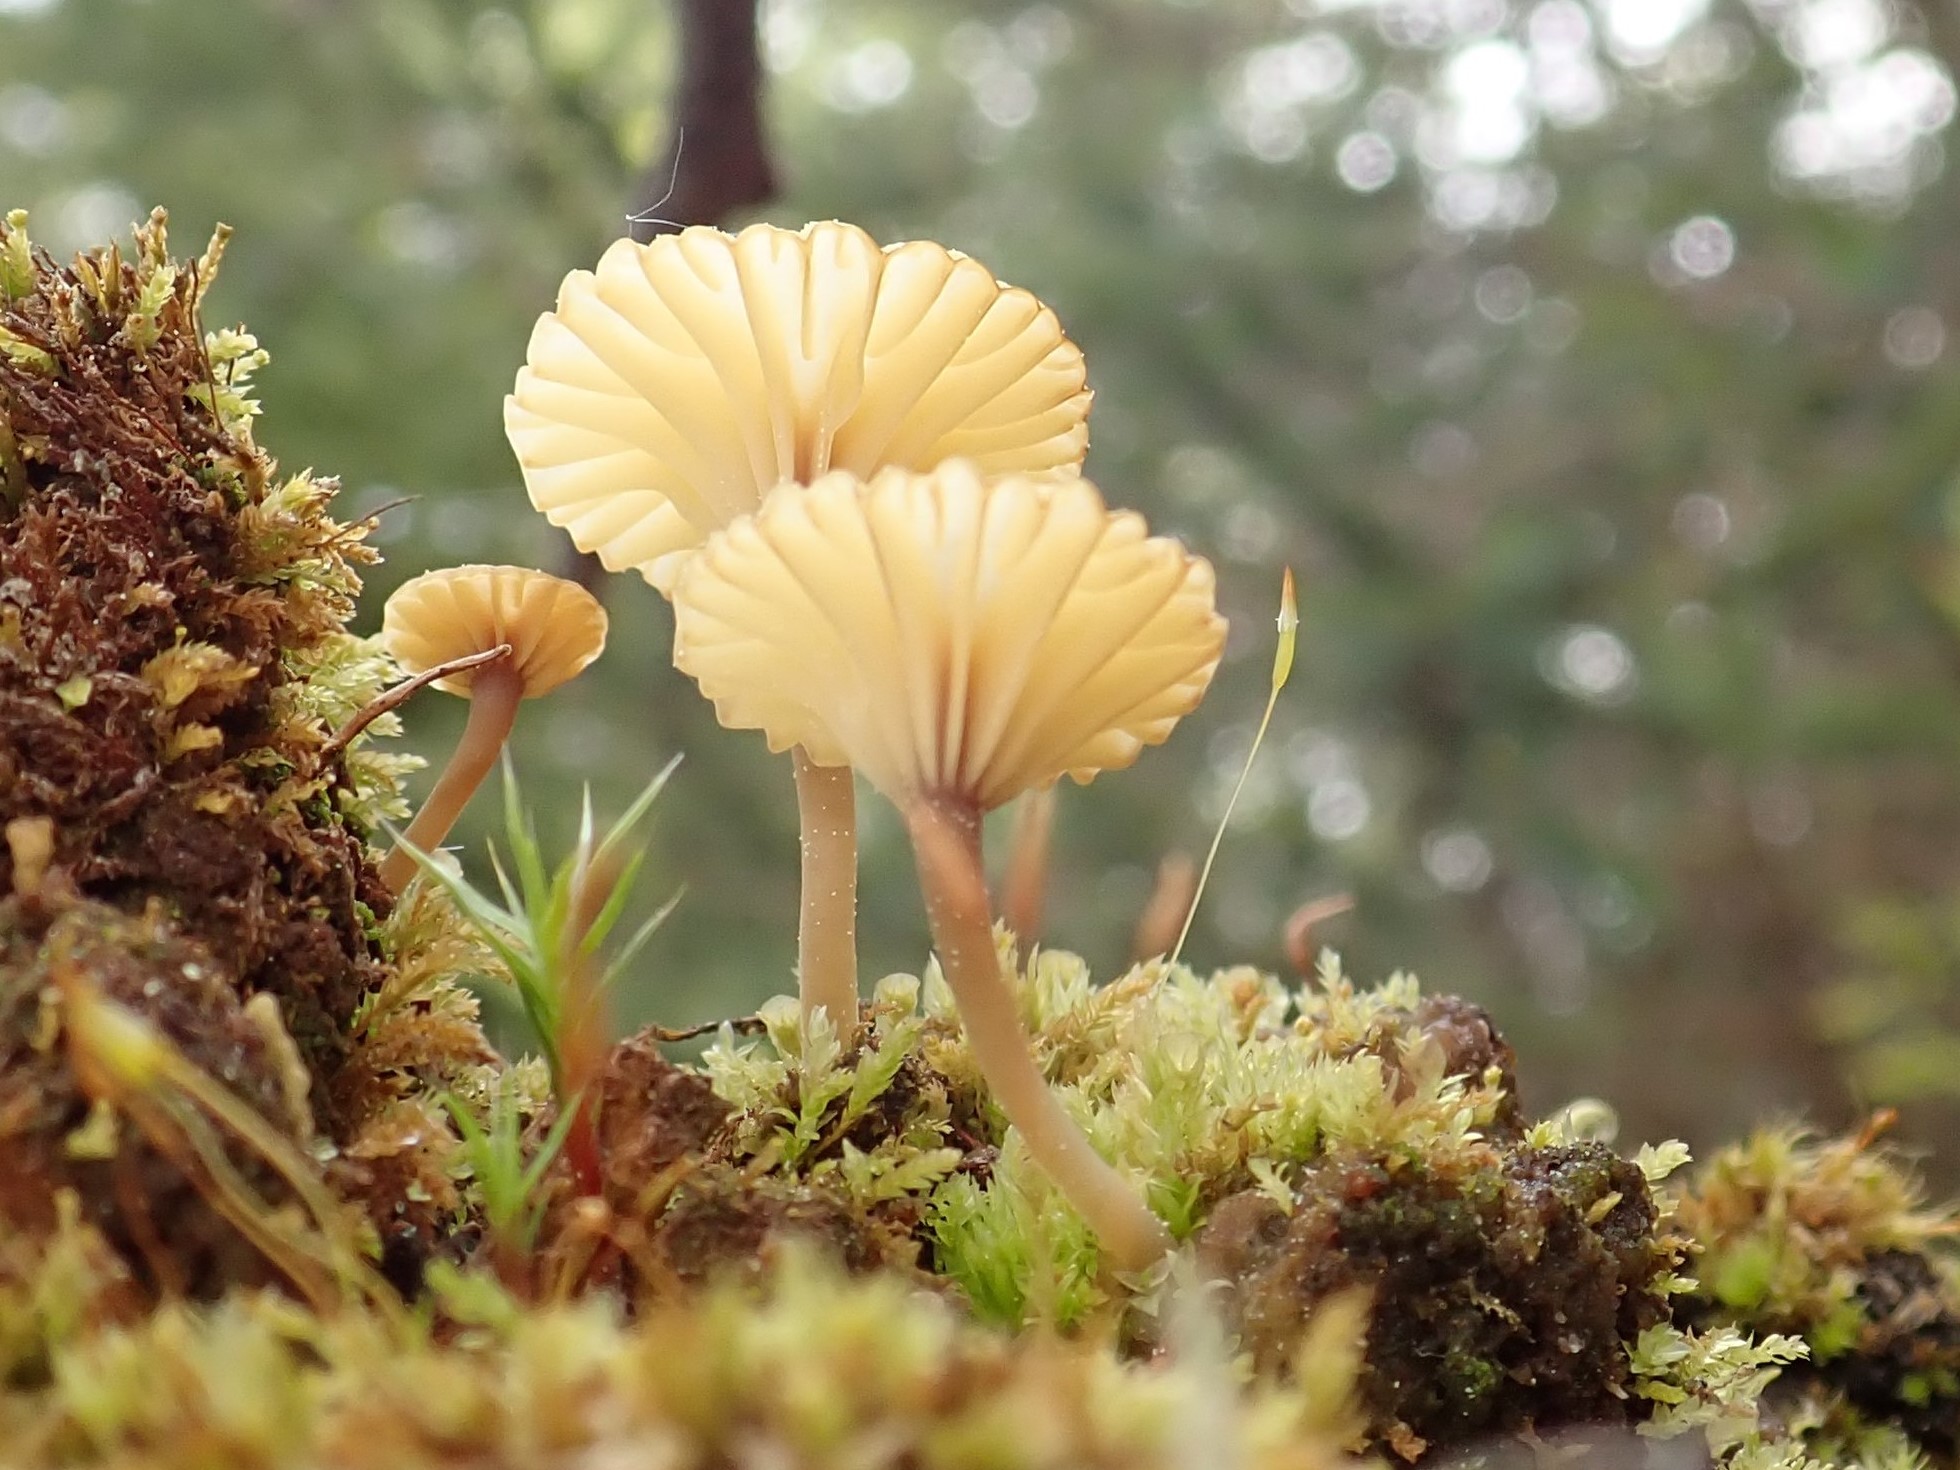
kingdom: Fungi
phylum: Basidiomycota
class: Agaricomycetes
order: Agaricales
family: Hygrophoraceae
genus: Lichenomphalia
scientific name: Lichenomphalia
